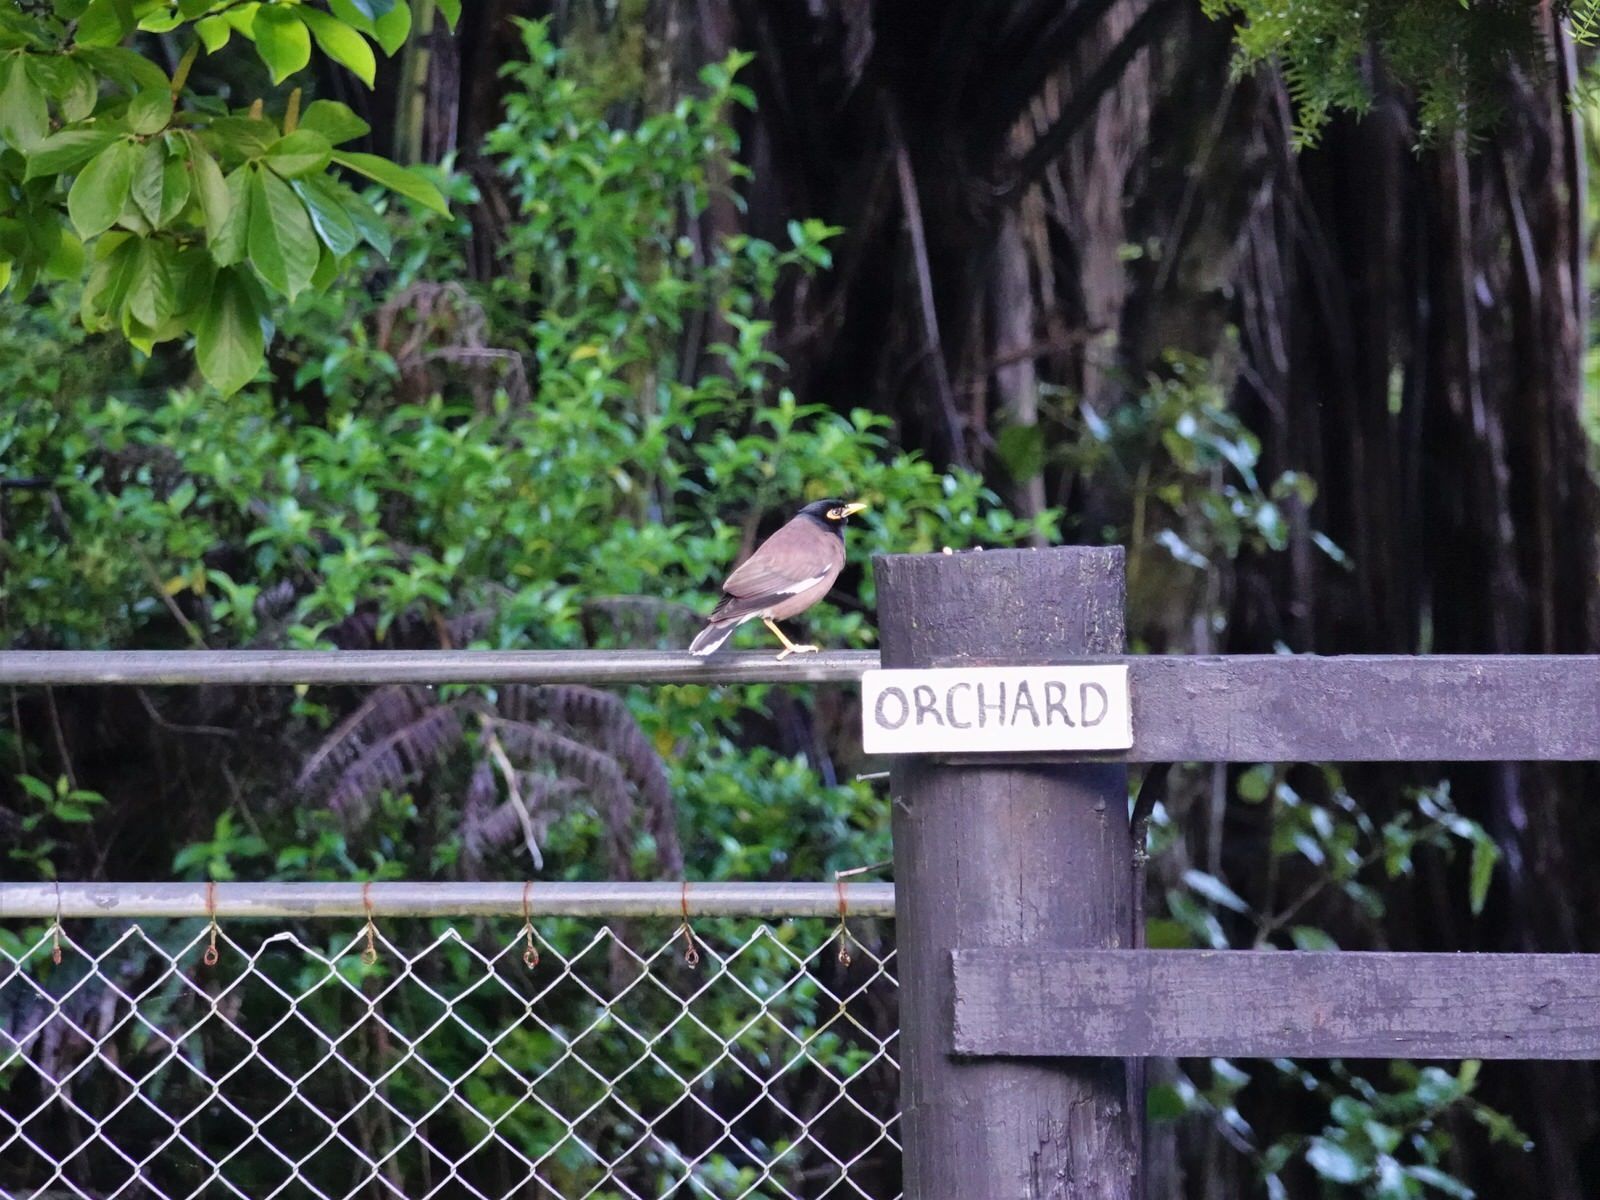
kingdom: Animalia
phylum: Chordata
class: Aves
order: Passeriformes
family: Sturnidae
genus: Acridotheres
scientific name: Acridotheres tristis
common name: Common myna
